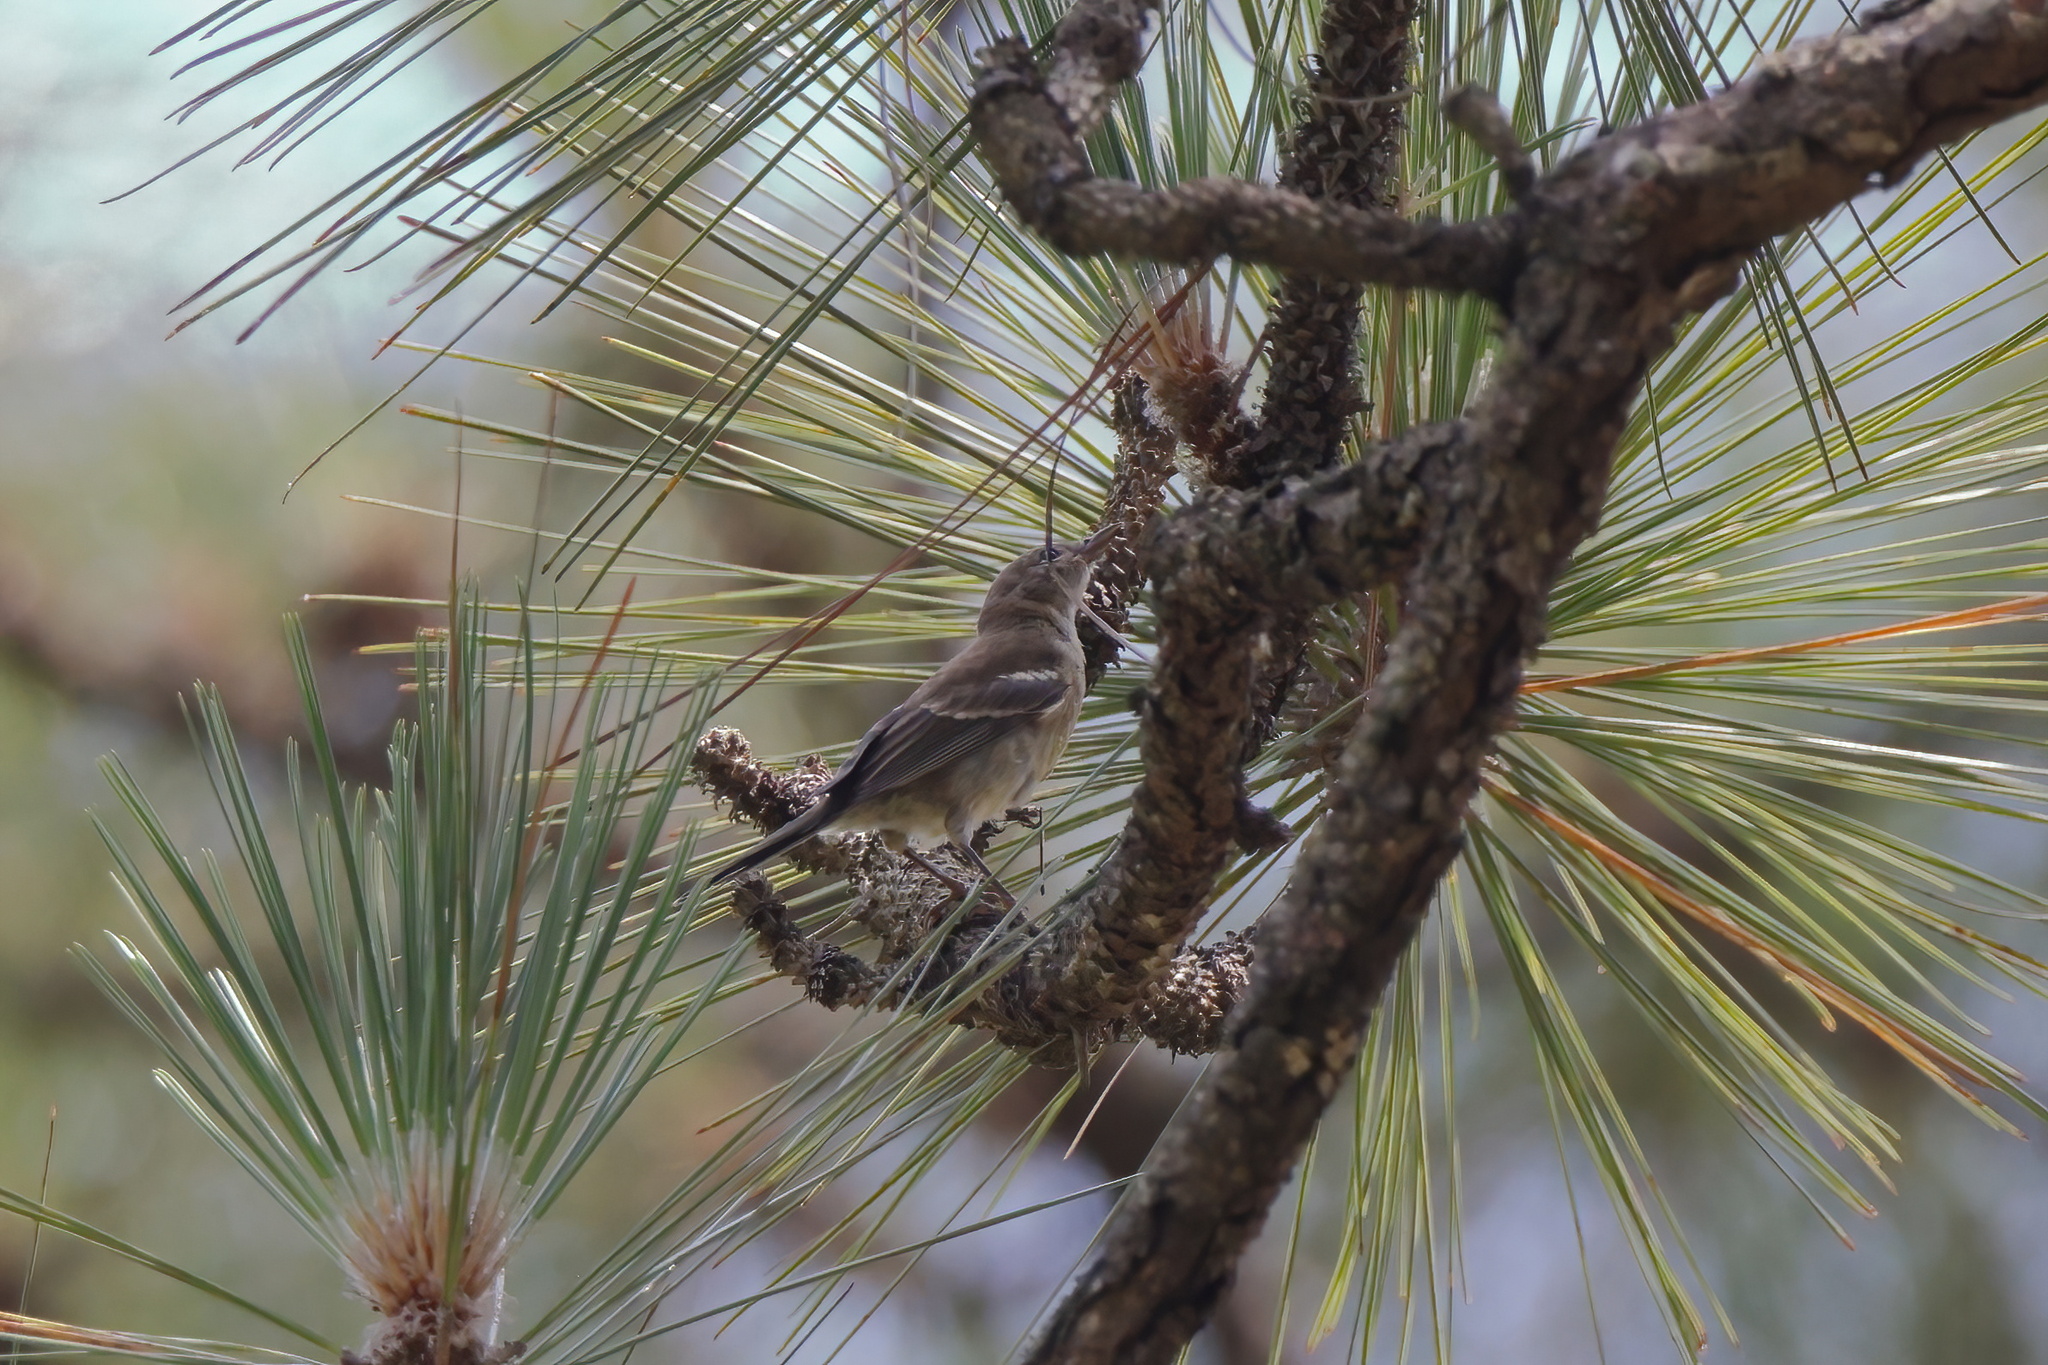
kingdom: Animalia
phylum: Chordata
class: Aves
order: Passeriformes
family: Parulidae
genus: Setophaga
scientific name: Setophaga pinus
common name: Pine warbler
